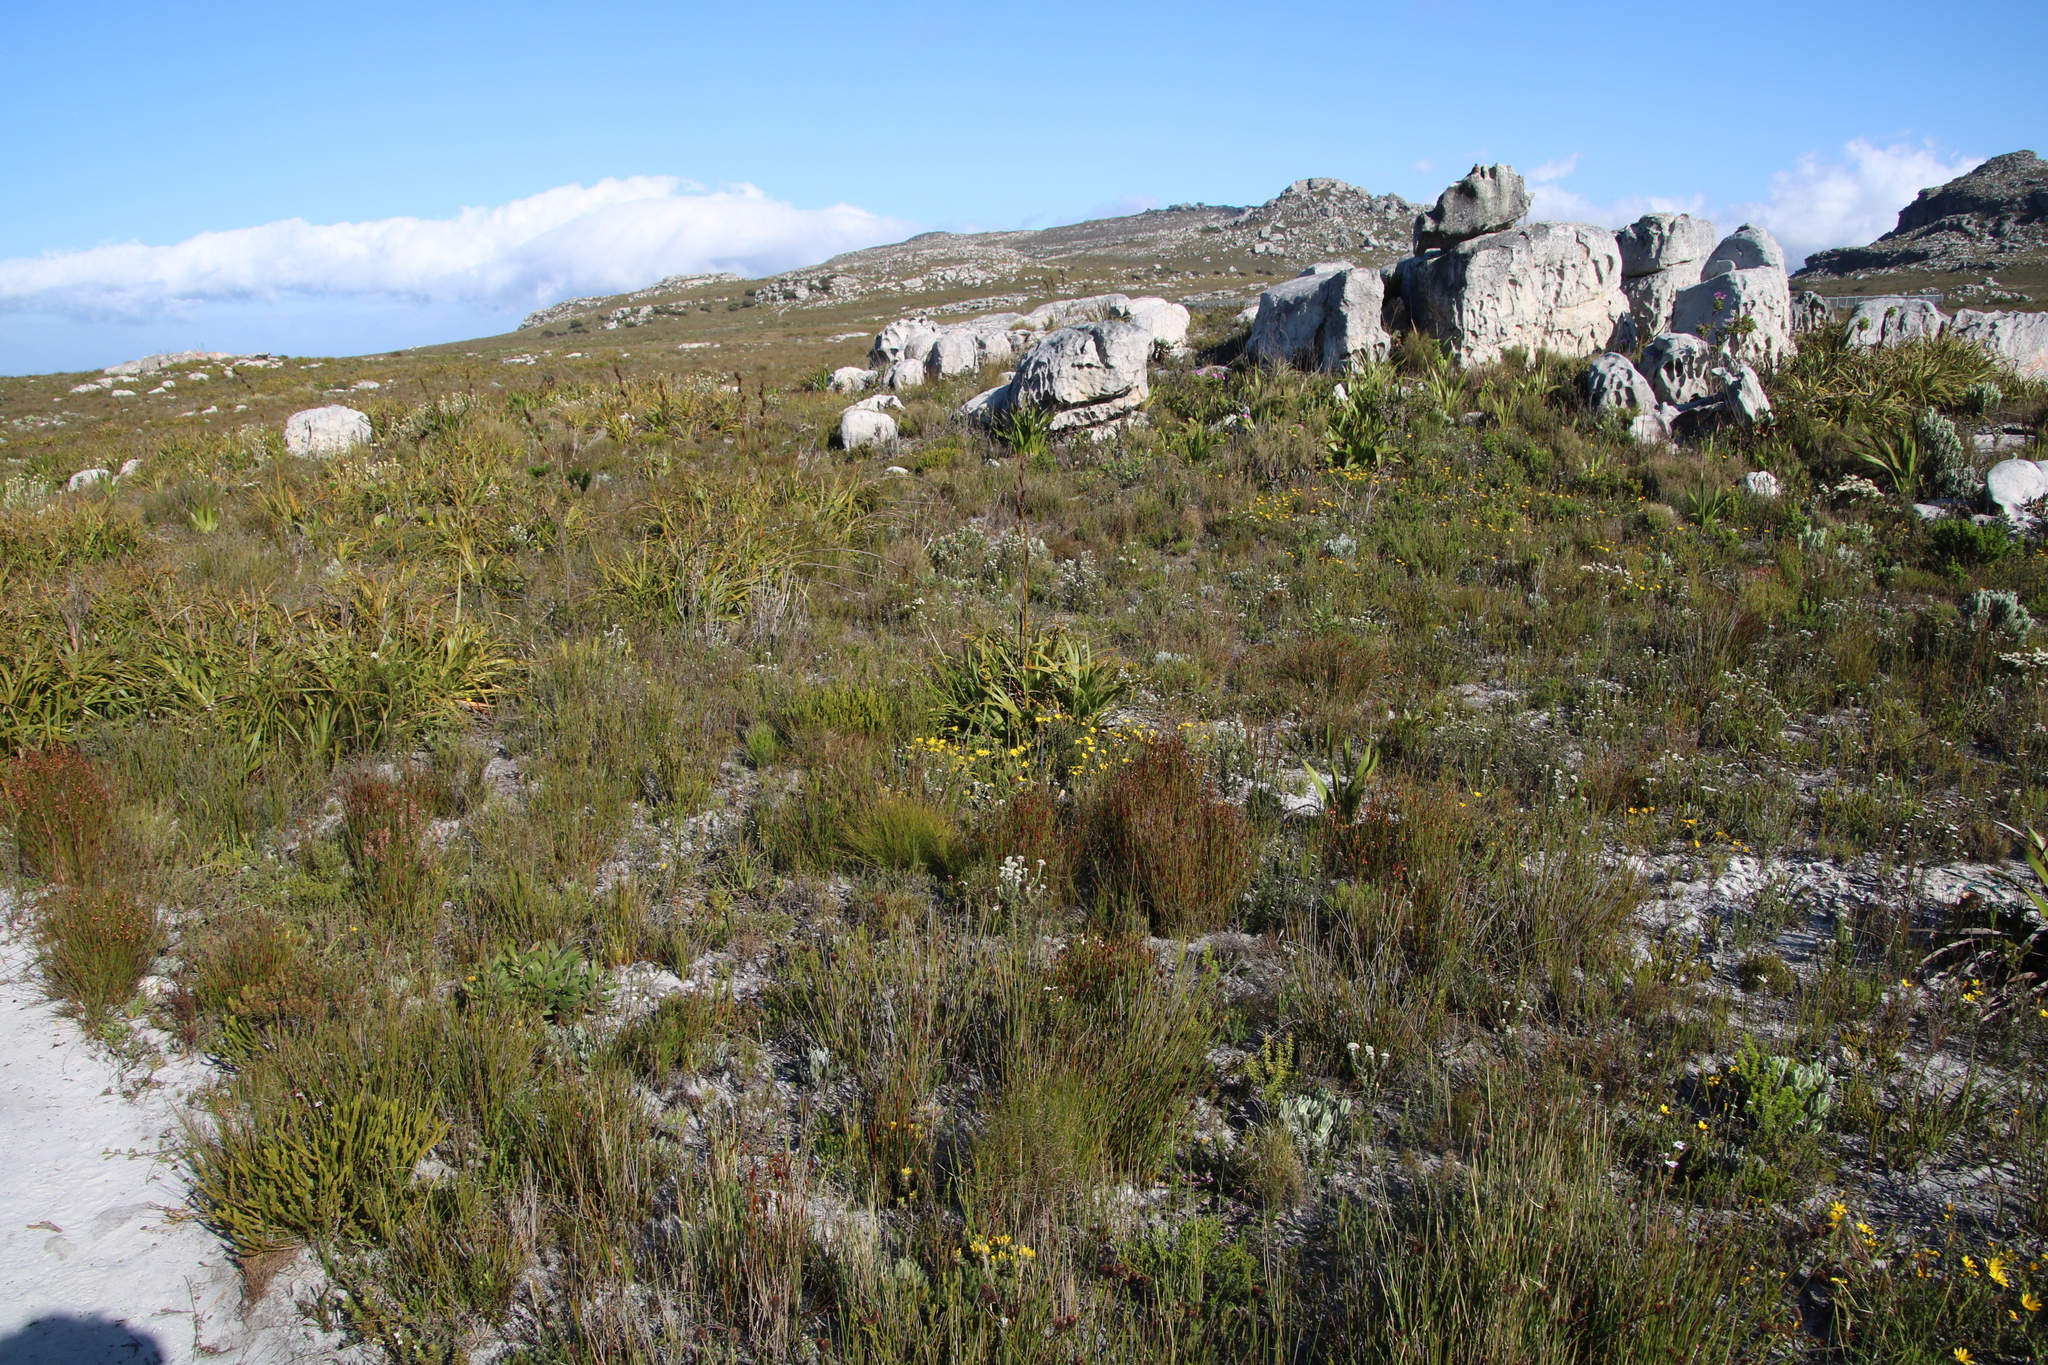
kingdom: Plantae
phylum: Tracheophyta
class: Magnoliopsida
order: Fabales
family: Fabaceae
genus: Aspalathus
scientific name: Aspalathus aspalathoides
